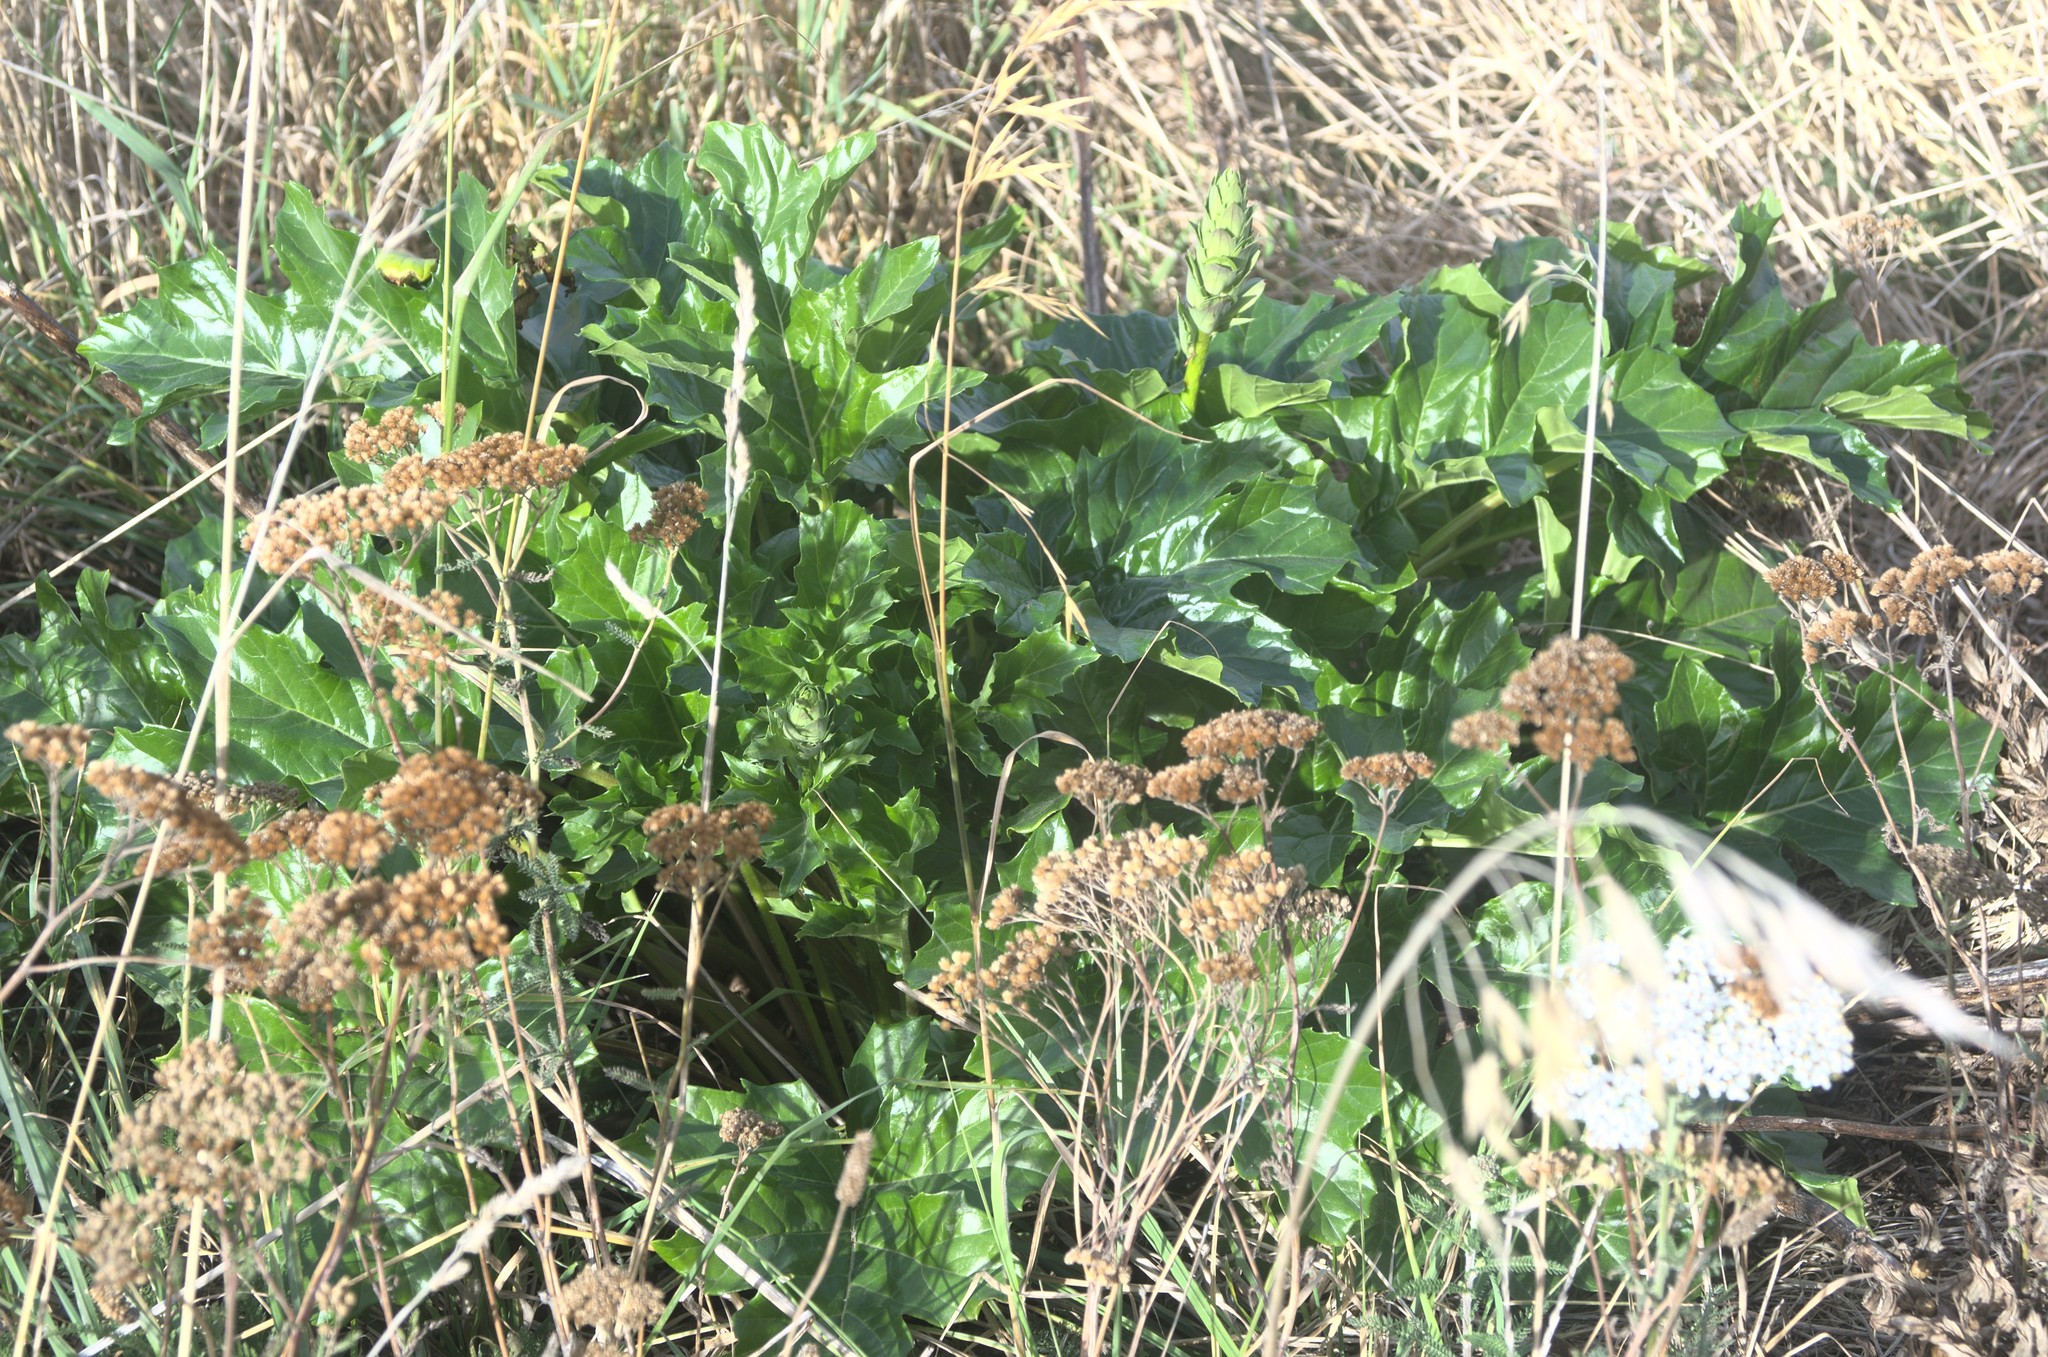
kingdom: Plantae
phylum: Tracheophyta
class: Magnoliopsida
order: Lamiales
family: Acanthaceae
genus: Acanthus
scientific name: Acanthus mollis
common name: Bear's-breech
